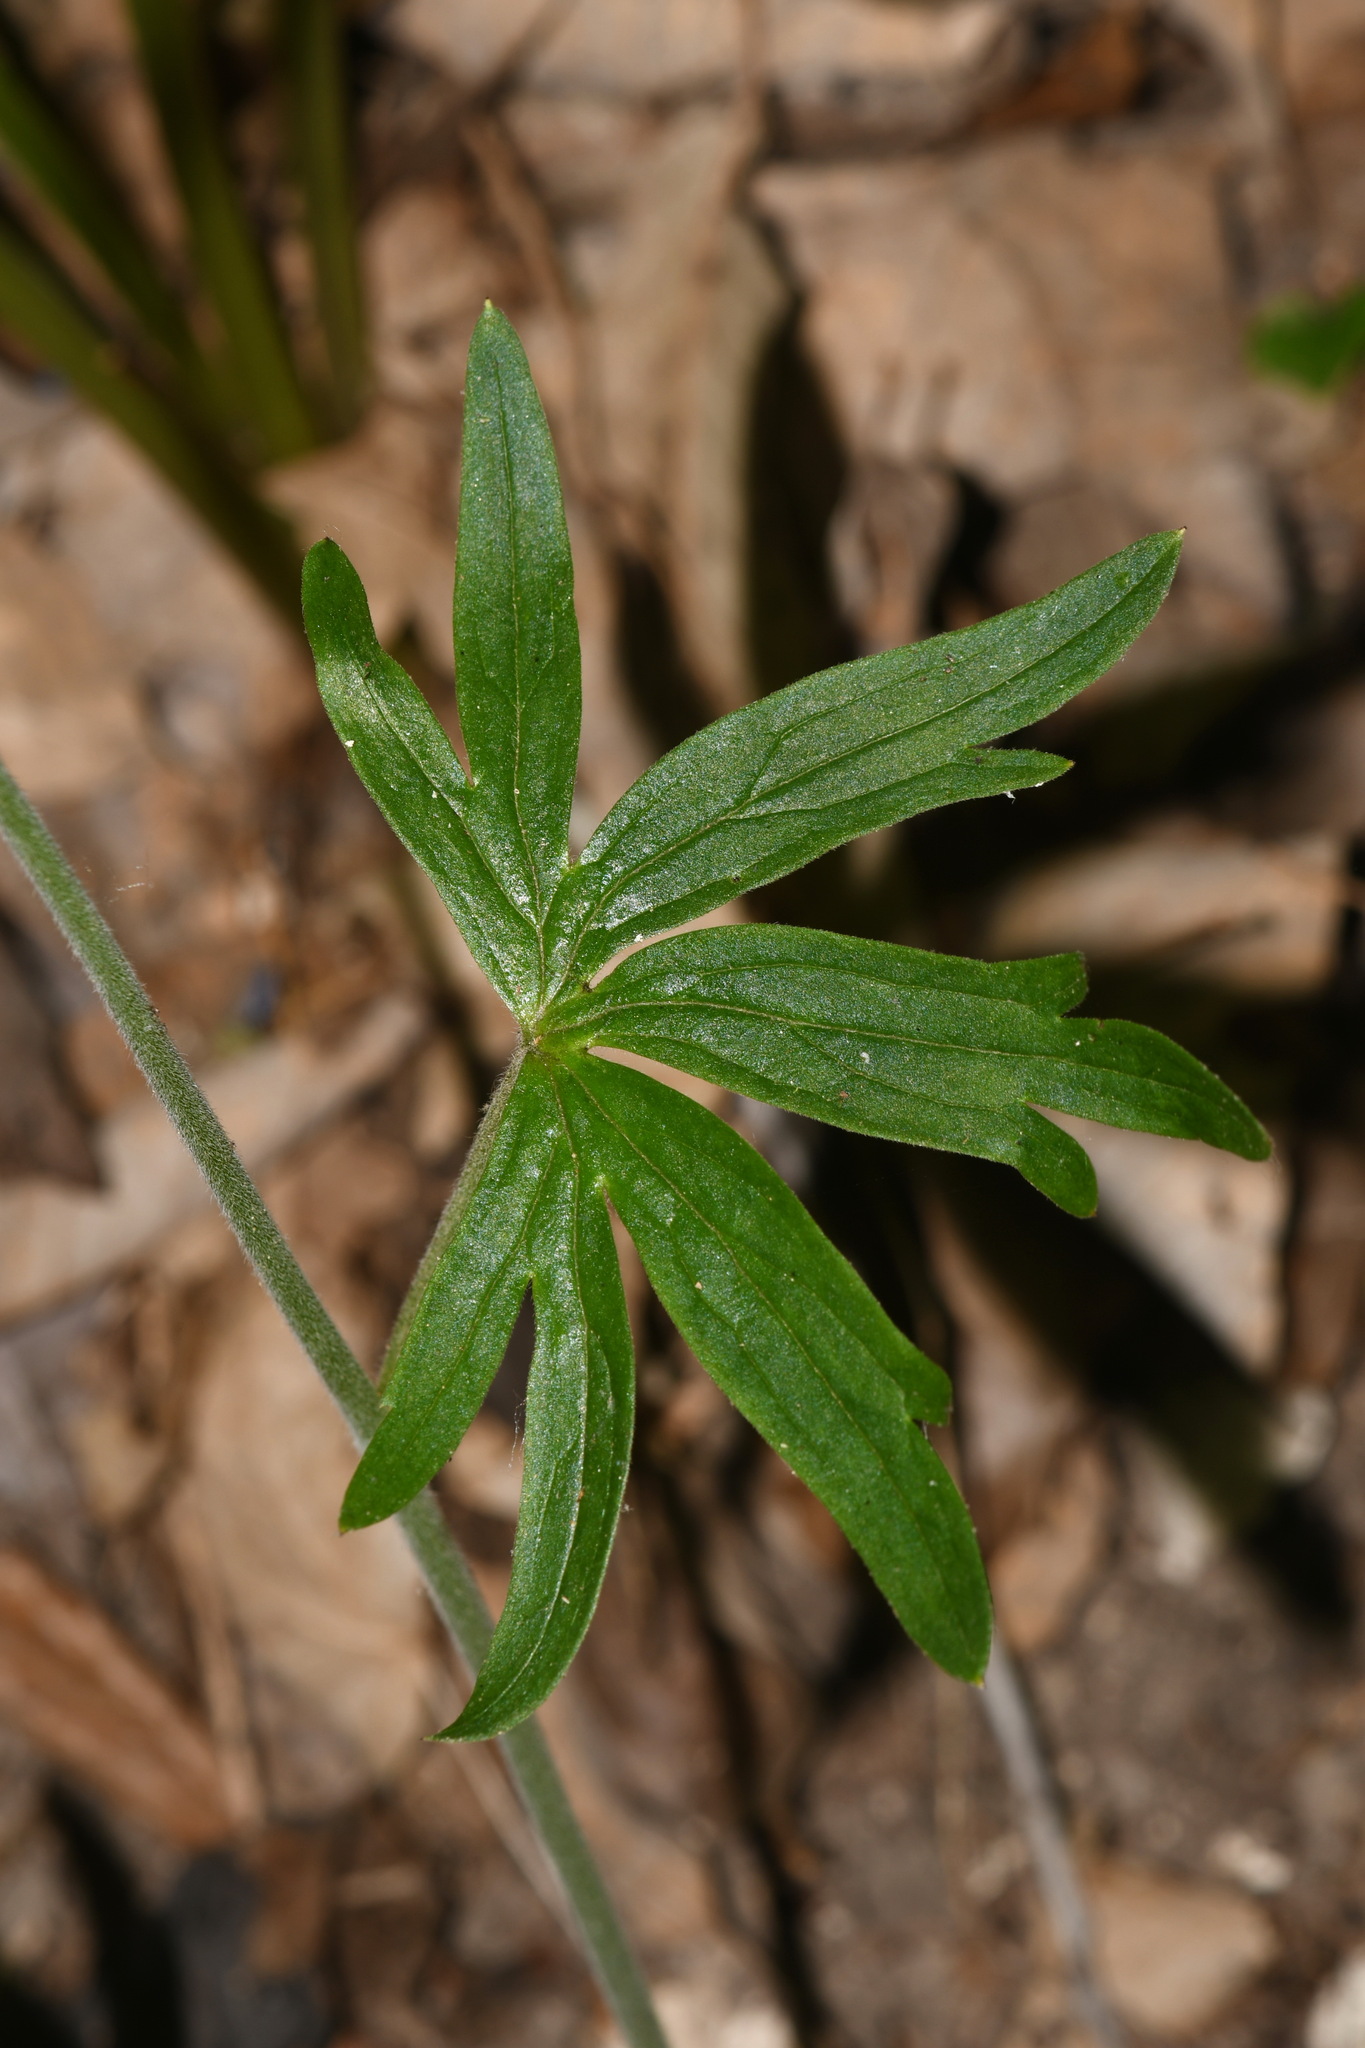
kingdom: Plantae
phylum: Tracheophyta
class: Magnoliopsida
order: Ranunculales
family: Ranunculaceae
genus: Delphinium
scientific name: Delphinium alabamicum
